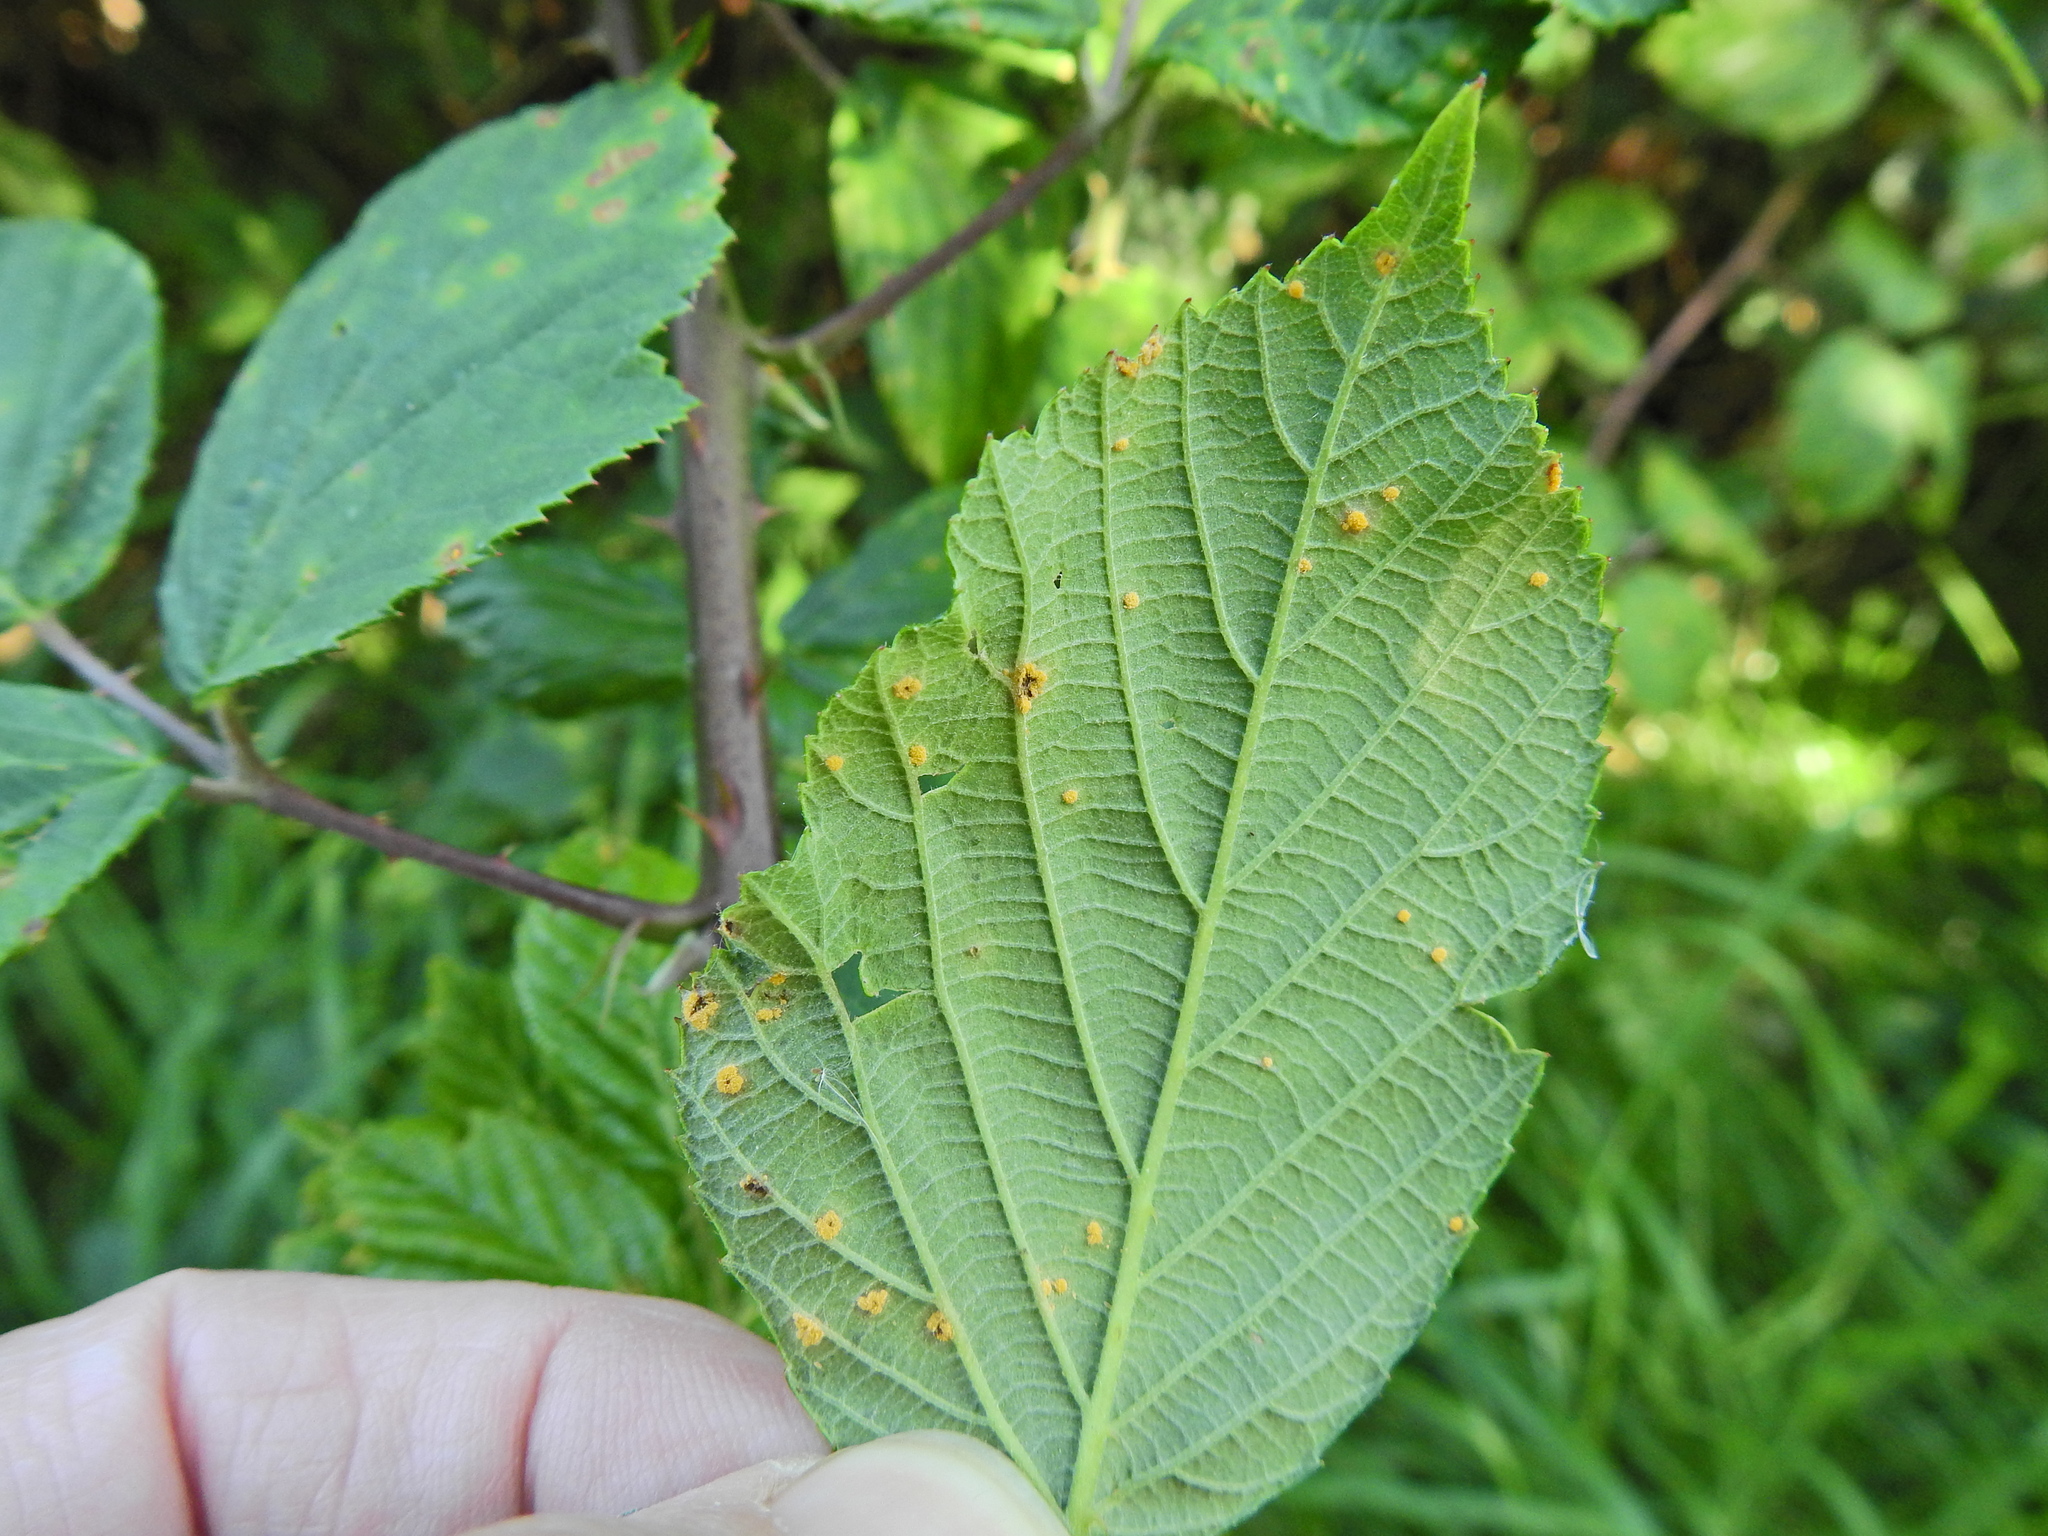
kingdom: Fungi
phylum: Basidiomycota
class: Pucciniomycetes
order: Pucciniales
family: Phragmidiaceae
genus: Phragmidium
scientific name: Phragmidium violaceum
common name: Violet bramble rust
